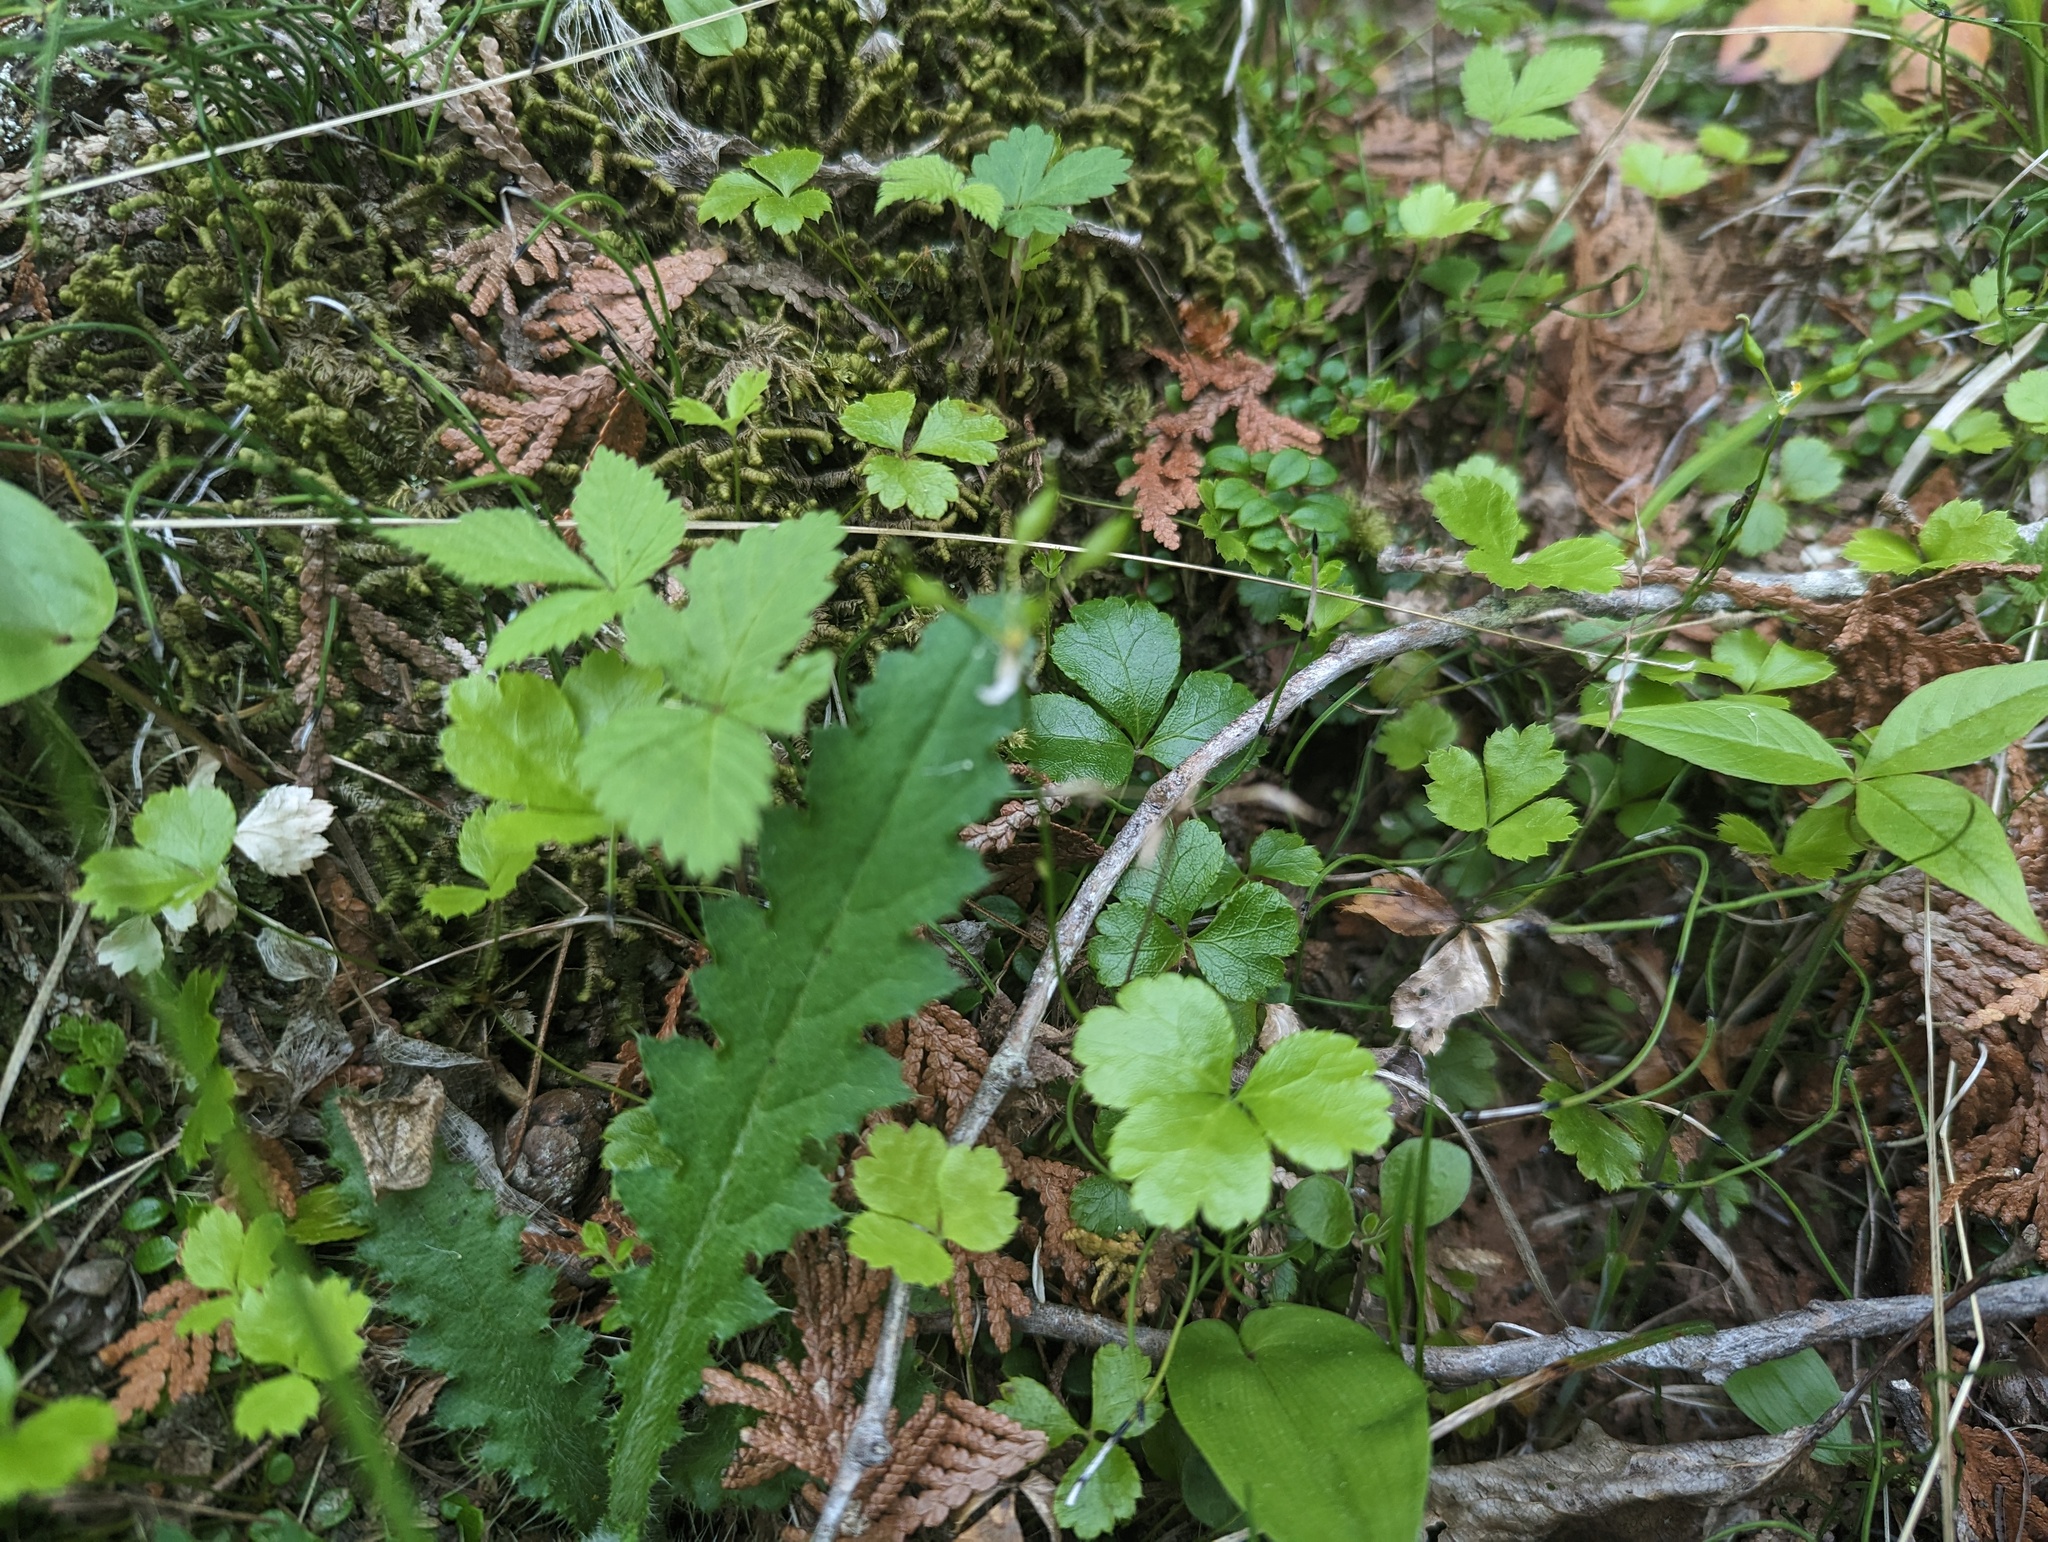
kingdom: Plantae
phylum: Tracheophyta
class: Magnoliopsida
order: Ranunculales
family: Ranunculaceae
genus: Coptis
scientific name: Coptis trifolia
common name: Canker-root
